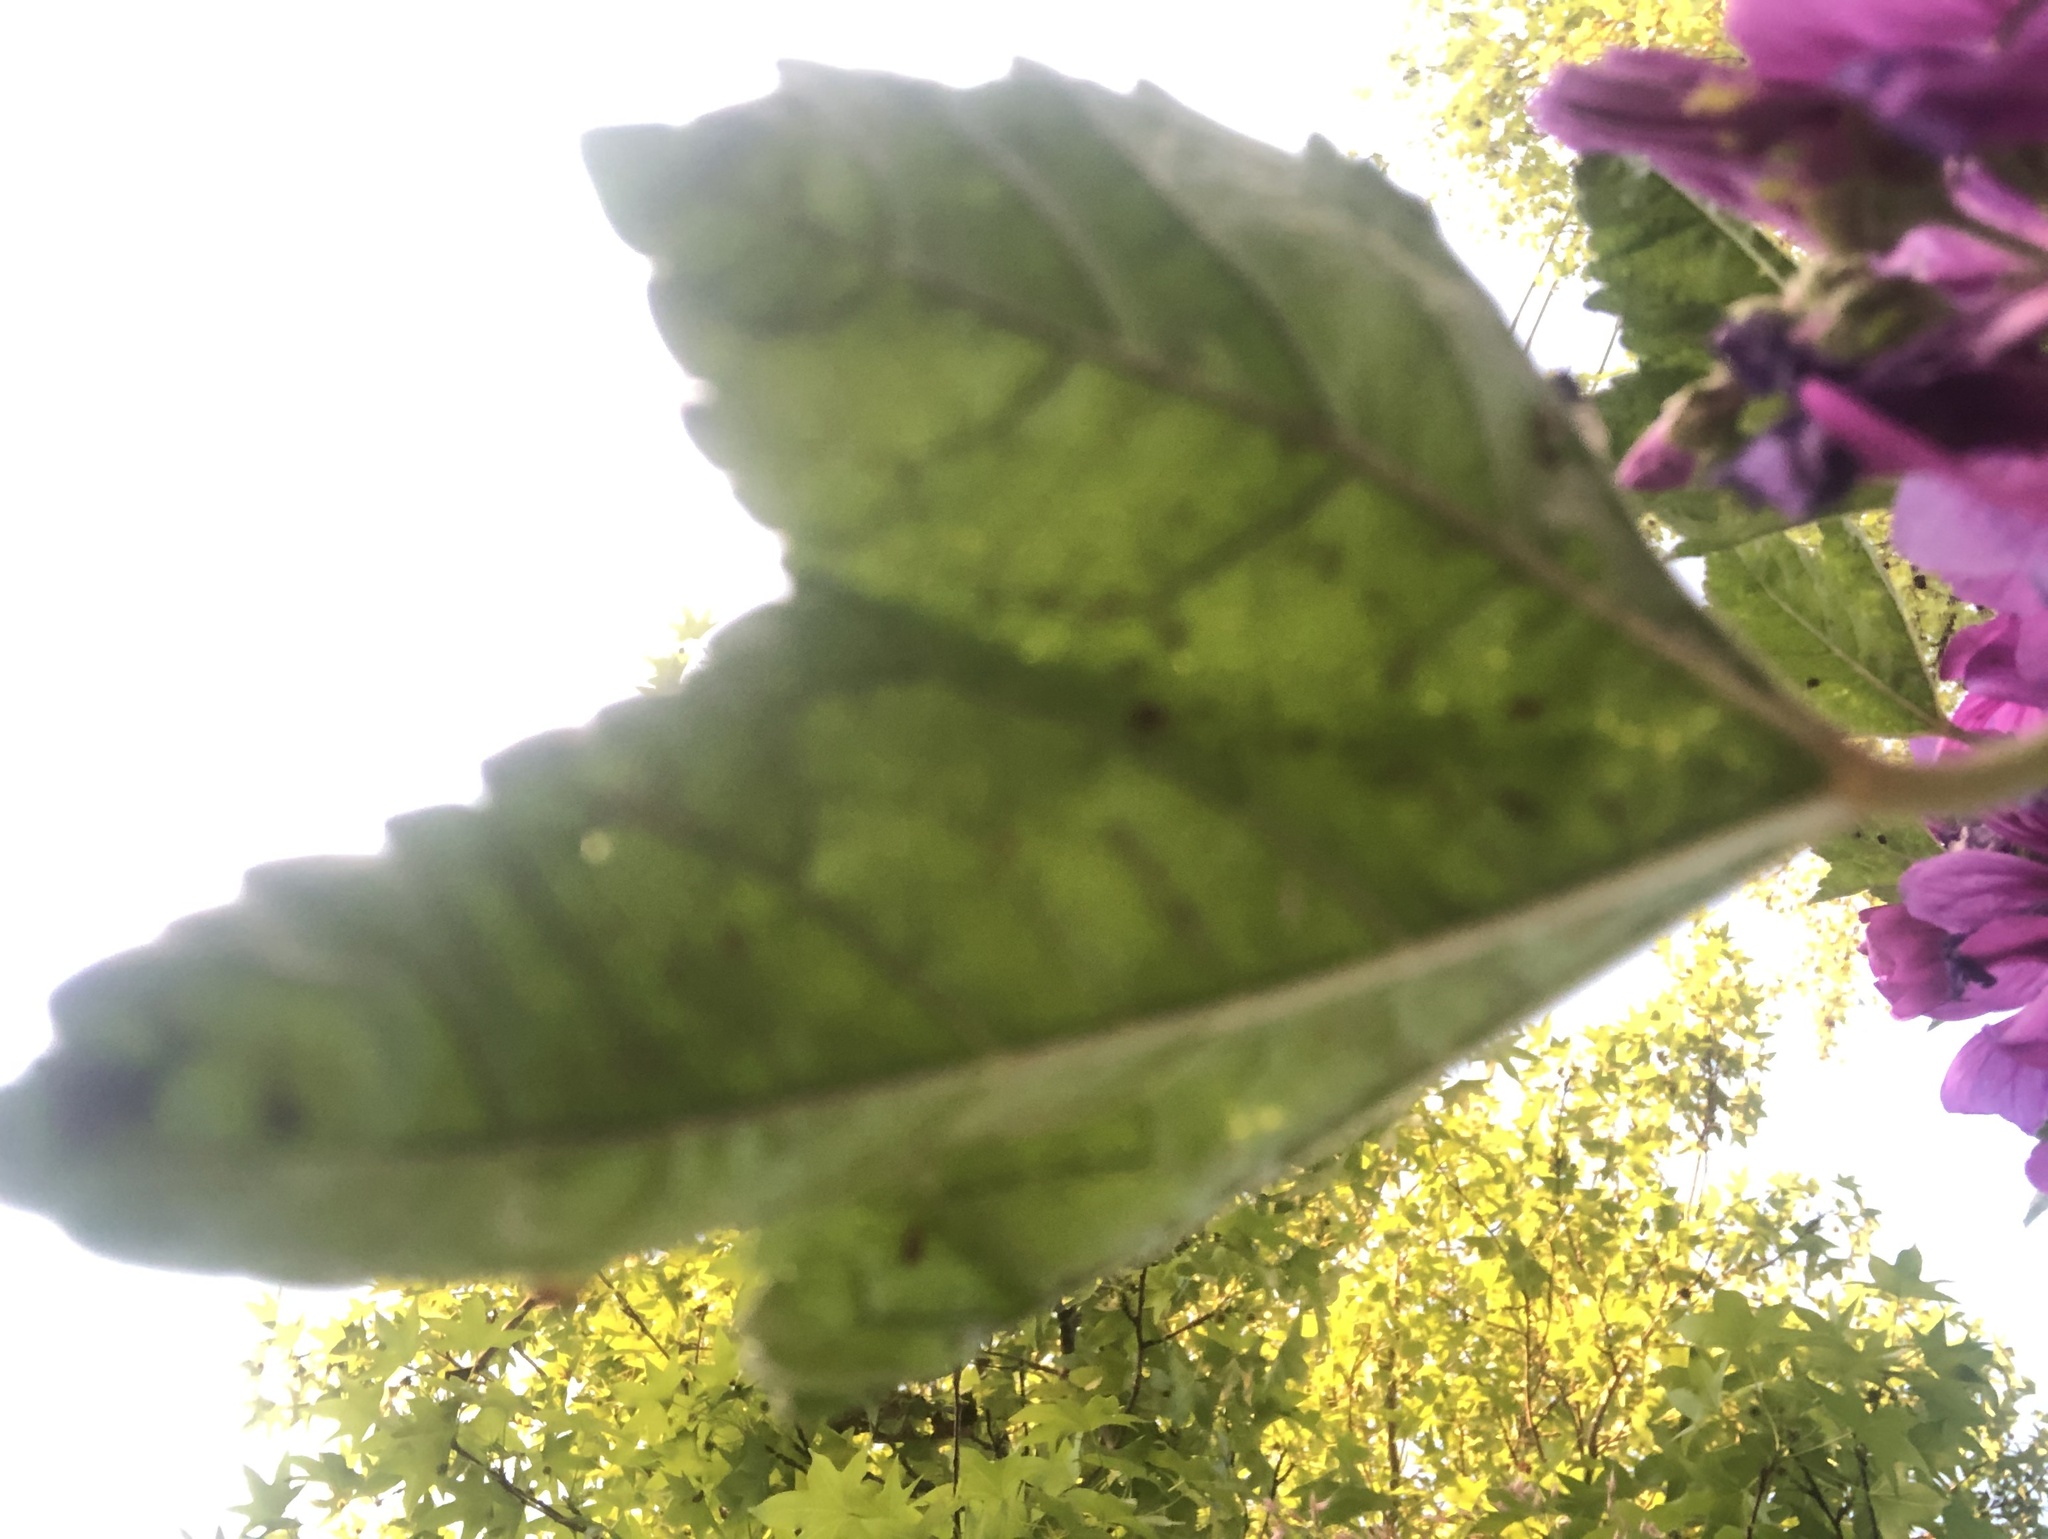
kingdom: Plantae
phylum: Tracheophyta
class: Magnoliopsida
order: Malvales
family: Malvaceae
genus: Malva
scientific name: Malva sylvestris
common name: Common mallow
